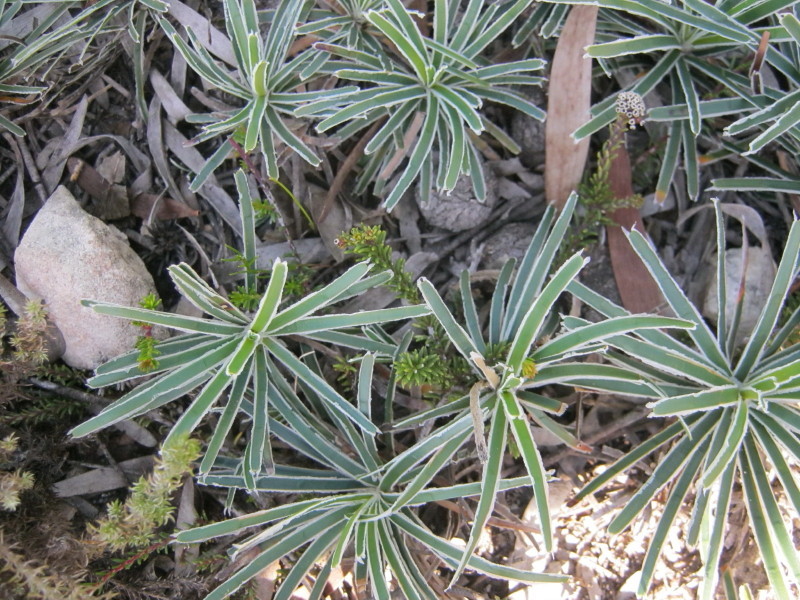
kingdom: Plantae
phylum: Tracheophyta
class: Liliopsida
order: Poales
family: Cyperaceae
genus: Ficinia
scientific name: Ficinia truncata
